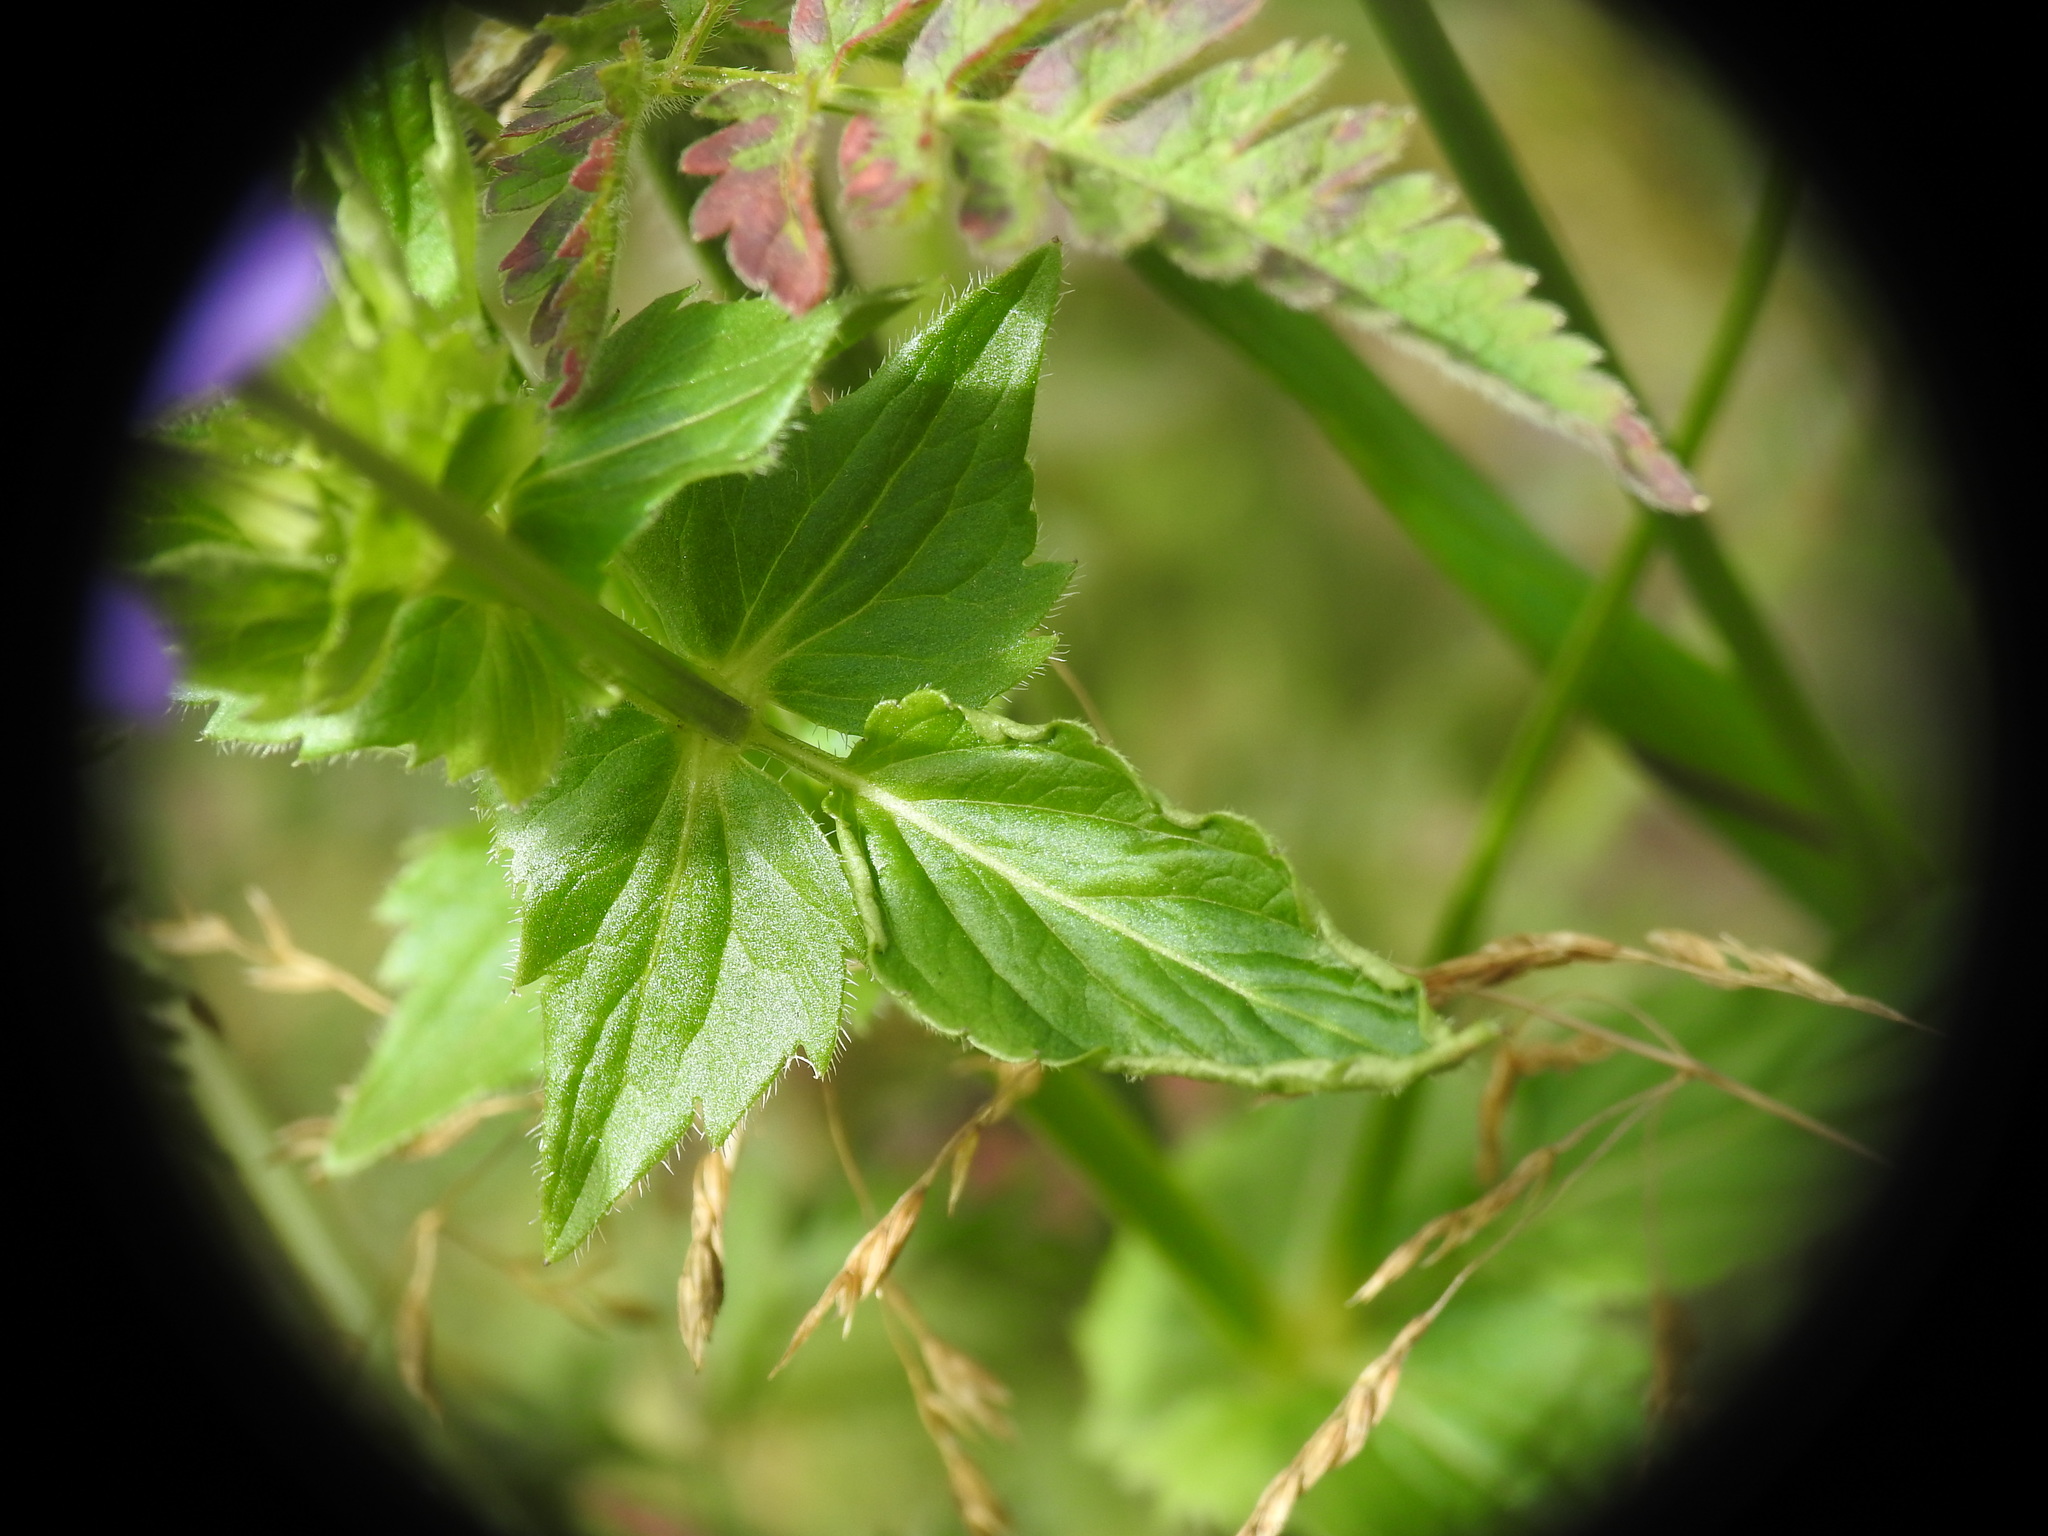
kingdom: Plantae
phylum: Tracheophyta
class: Magnoliopsida
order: Malpighiales
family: Violaceae
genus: Viola
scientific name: Viola cornuta
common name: Horned pansy
